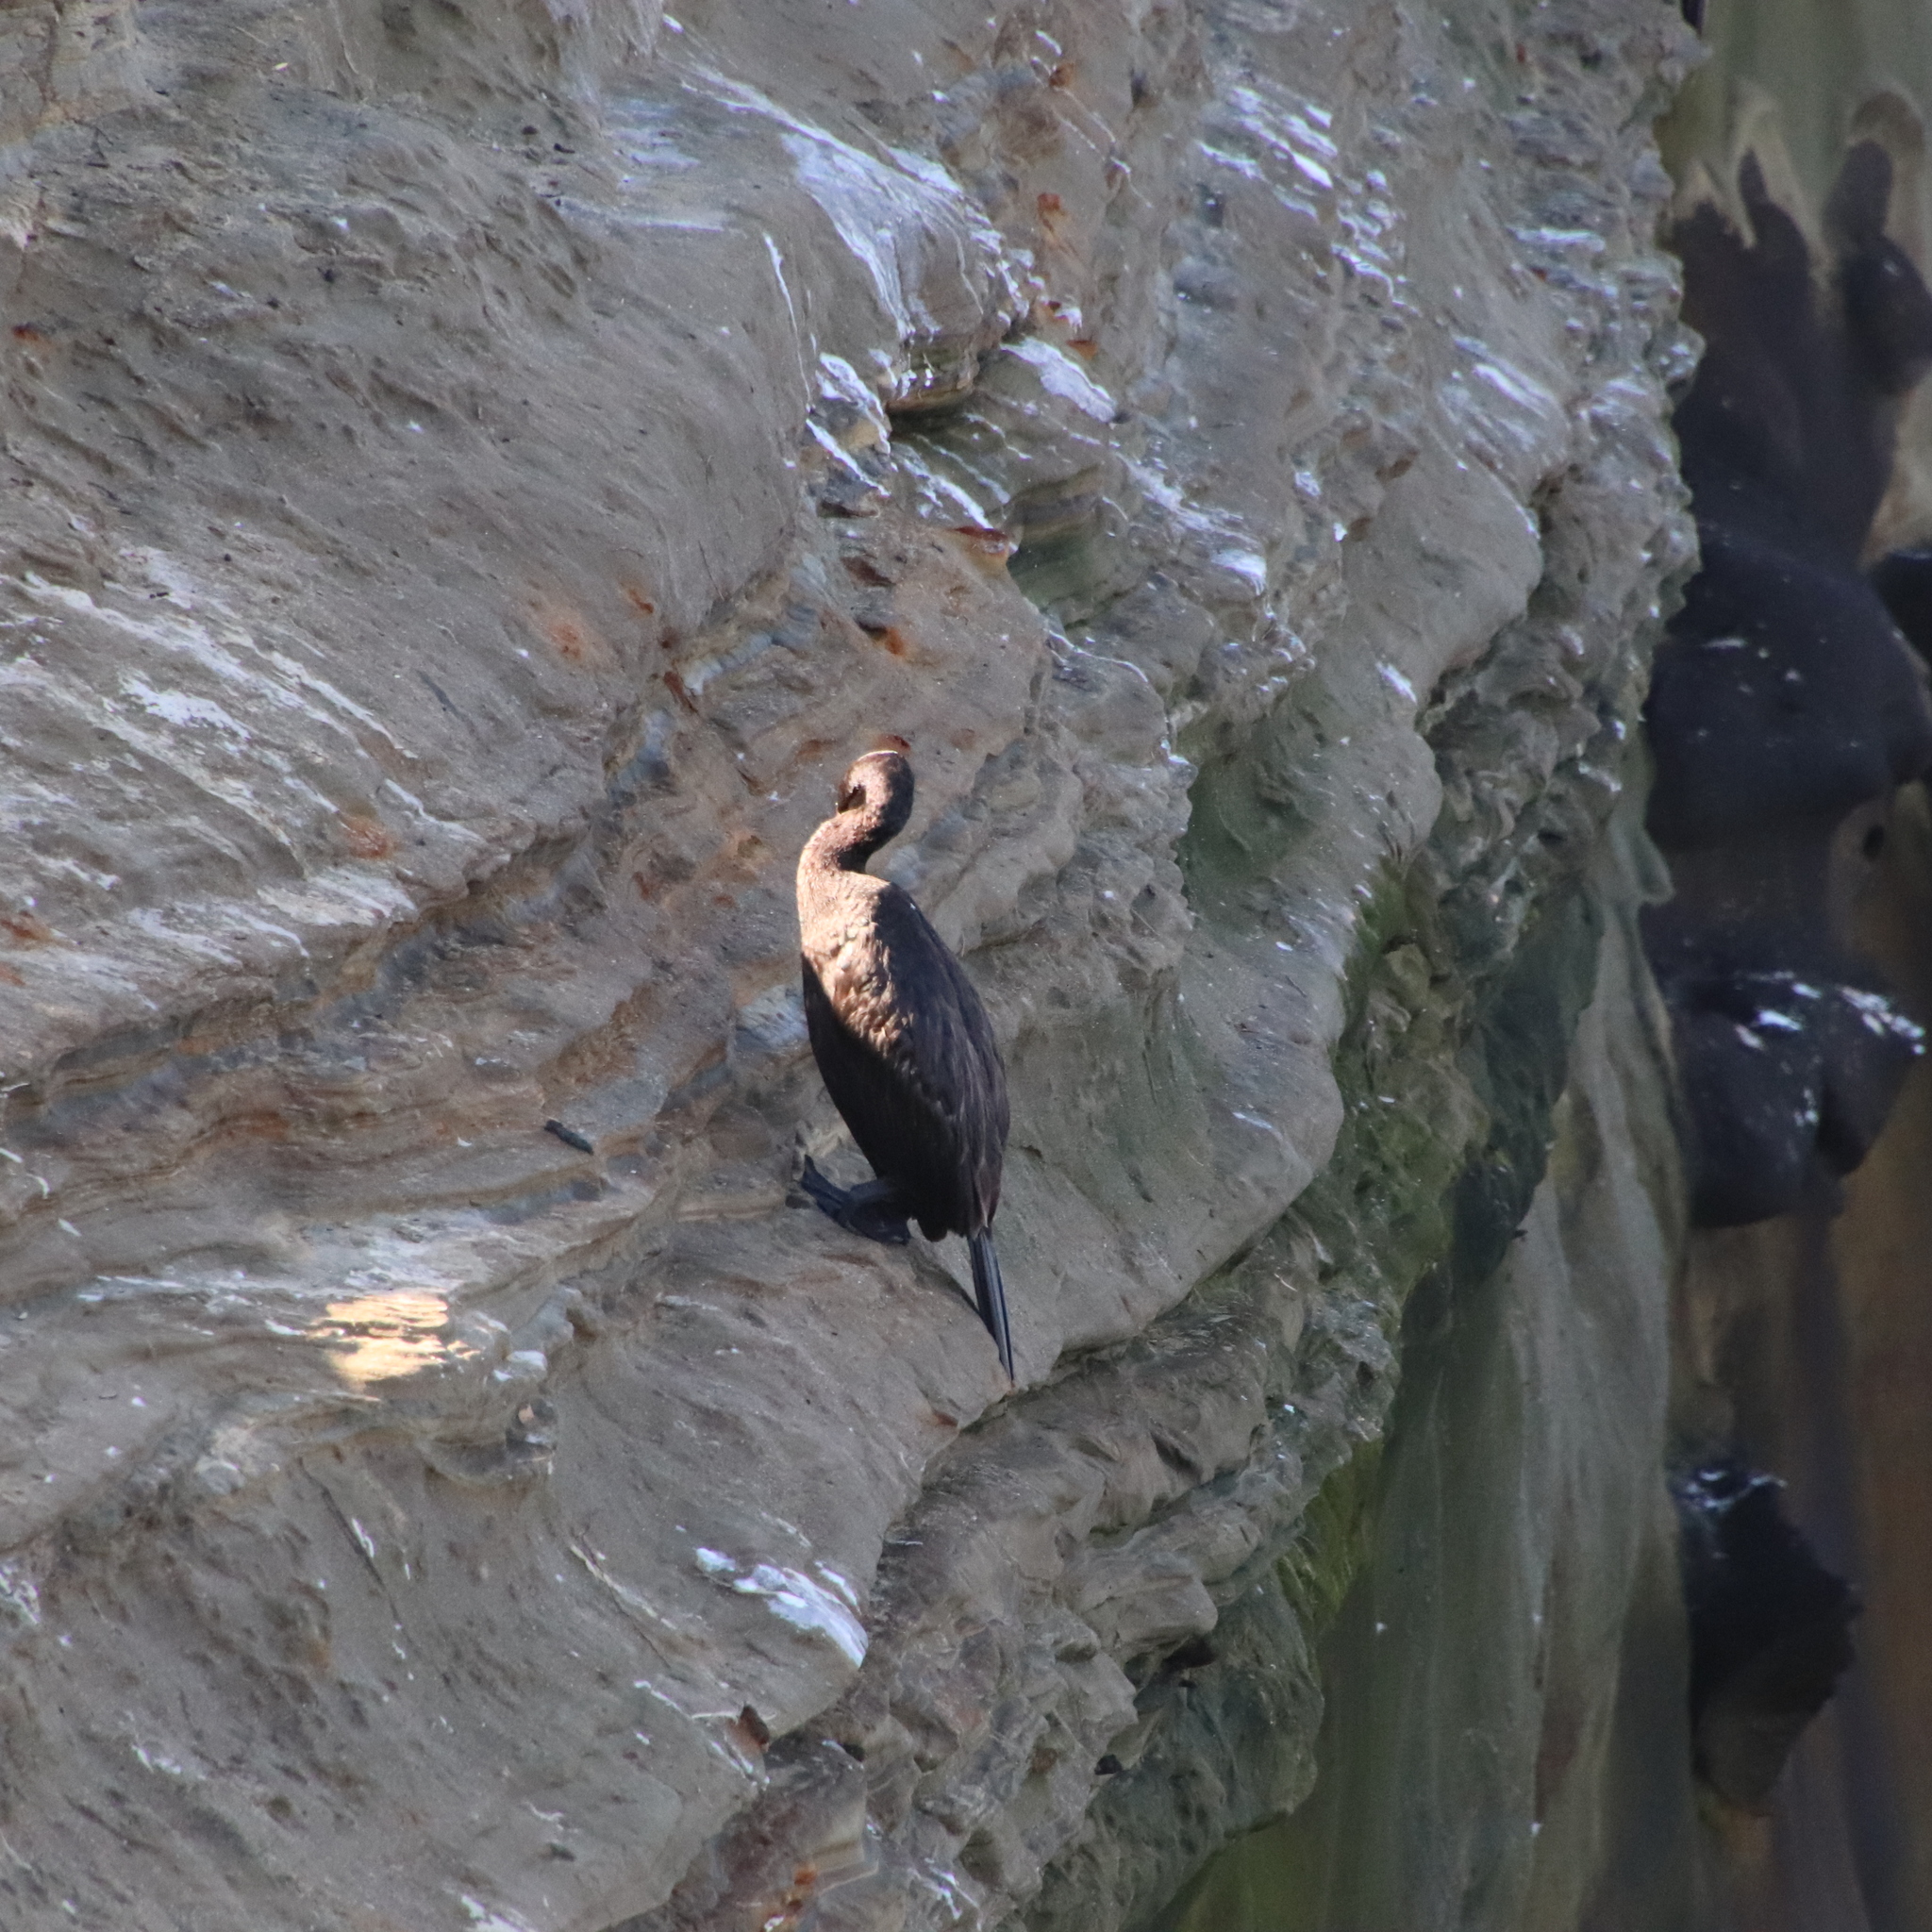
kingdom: Animalia
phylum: Chordata
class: Aves
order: Suliformes
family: Phalacrocoracidae
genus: Phalacrocorax
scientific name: Phalacrocorax pelagicus
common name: Pelagic cormorant
